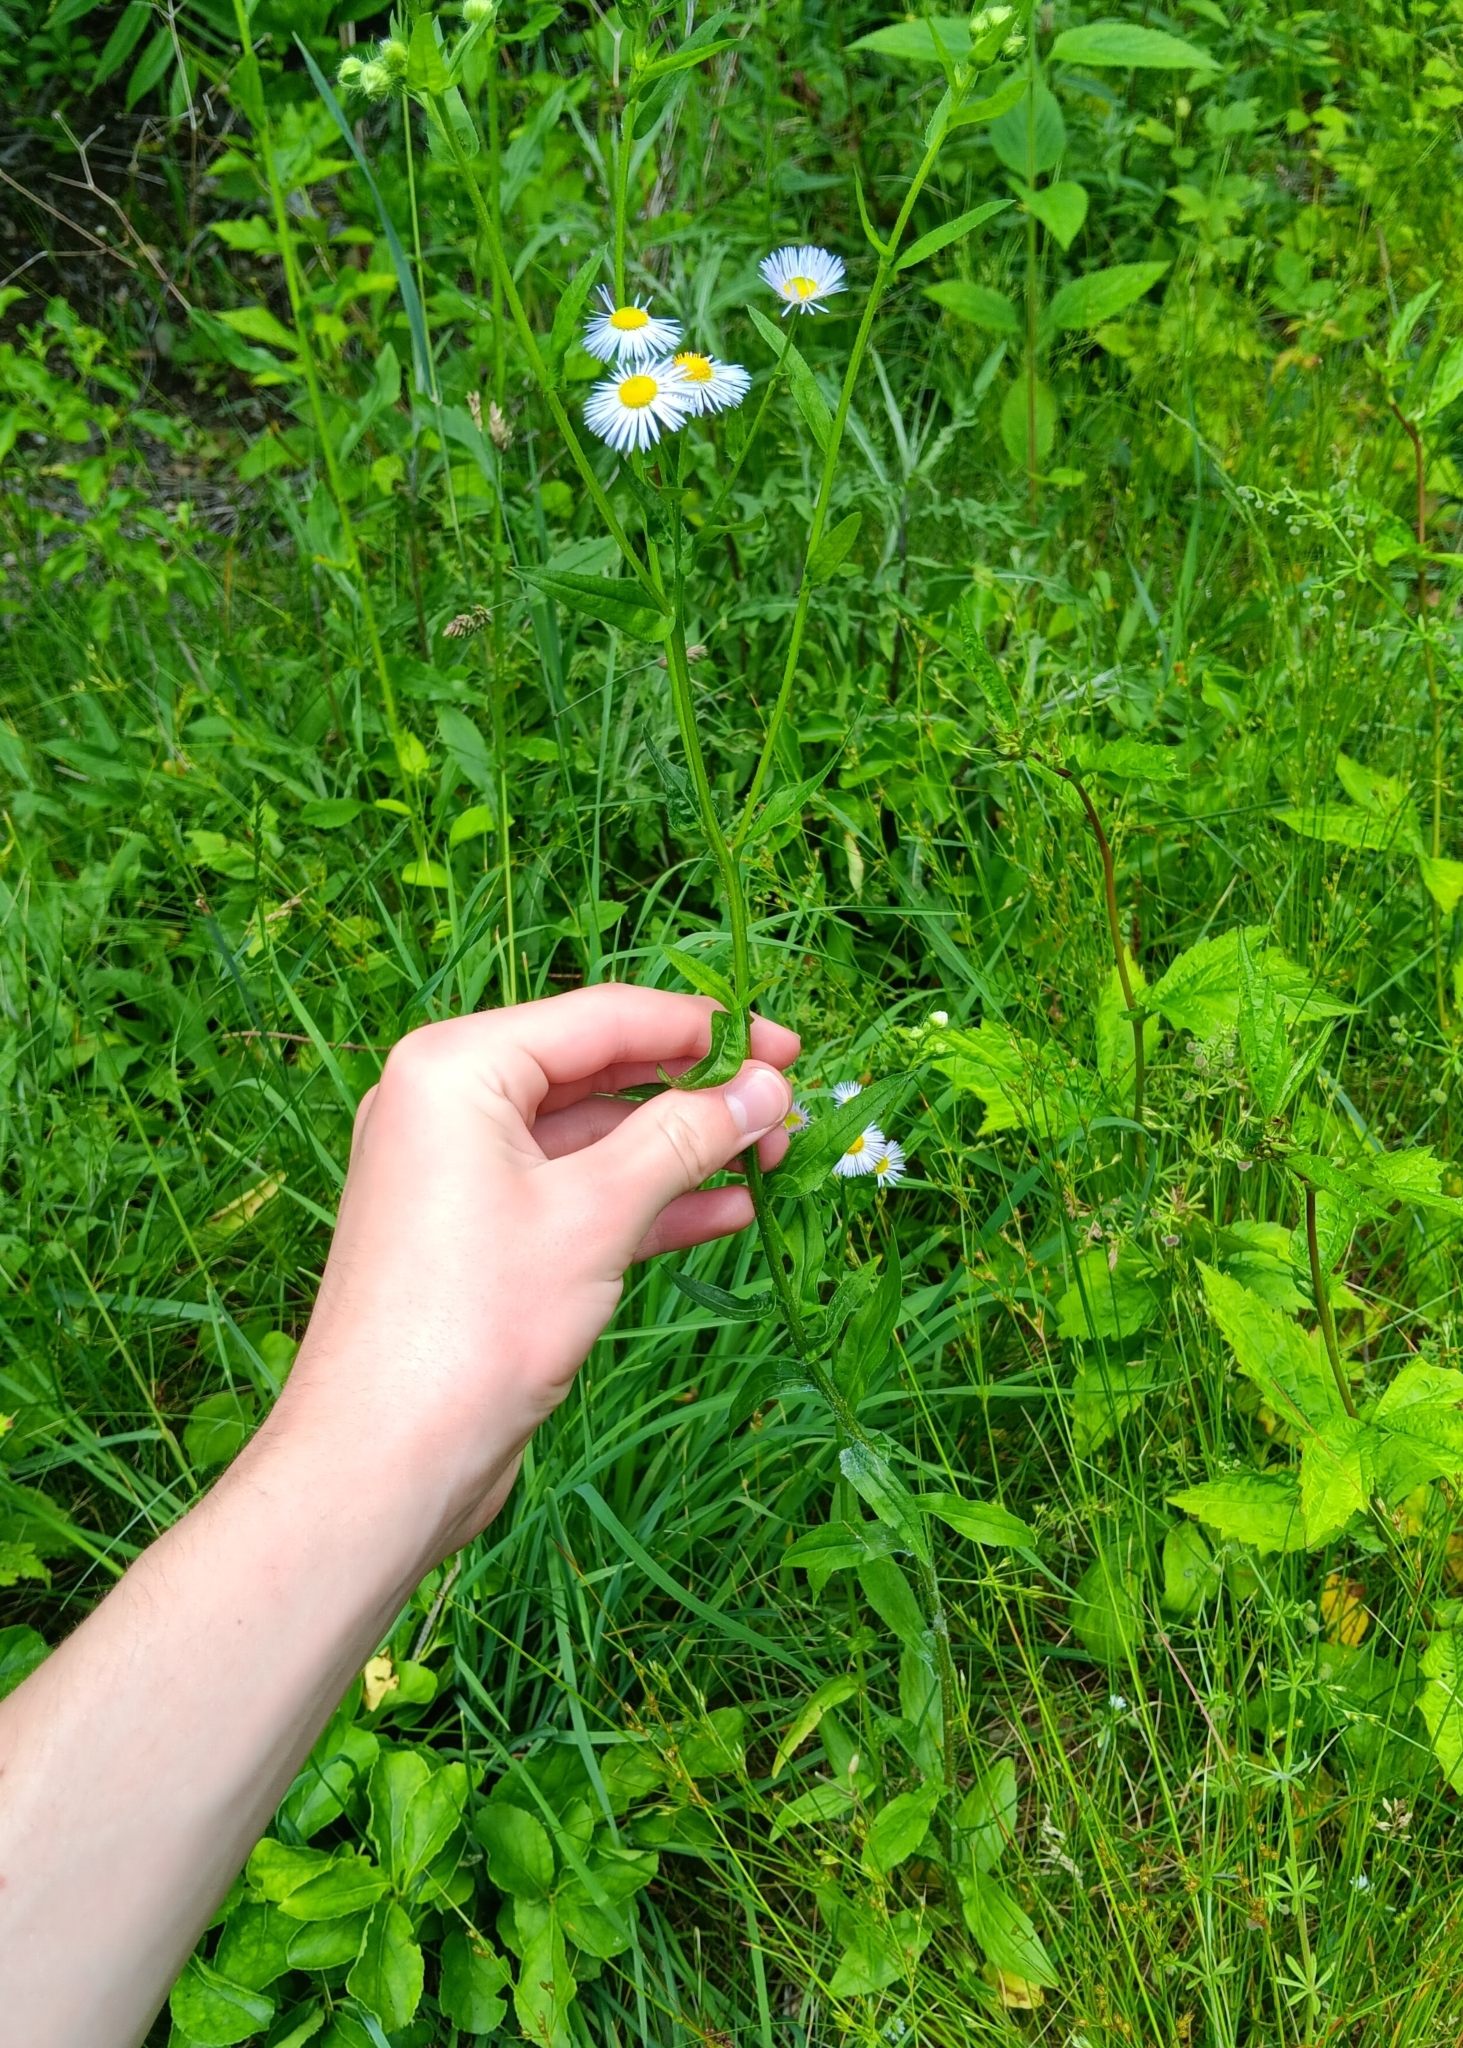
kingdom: Plantae
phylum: Tracheophyta
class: Magnoliopsida
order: Asterales
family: Asteraceae
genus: Erigeron
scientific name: Erigeron annuus
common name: Tall fleabane
